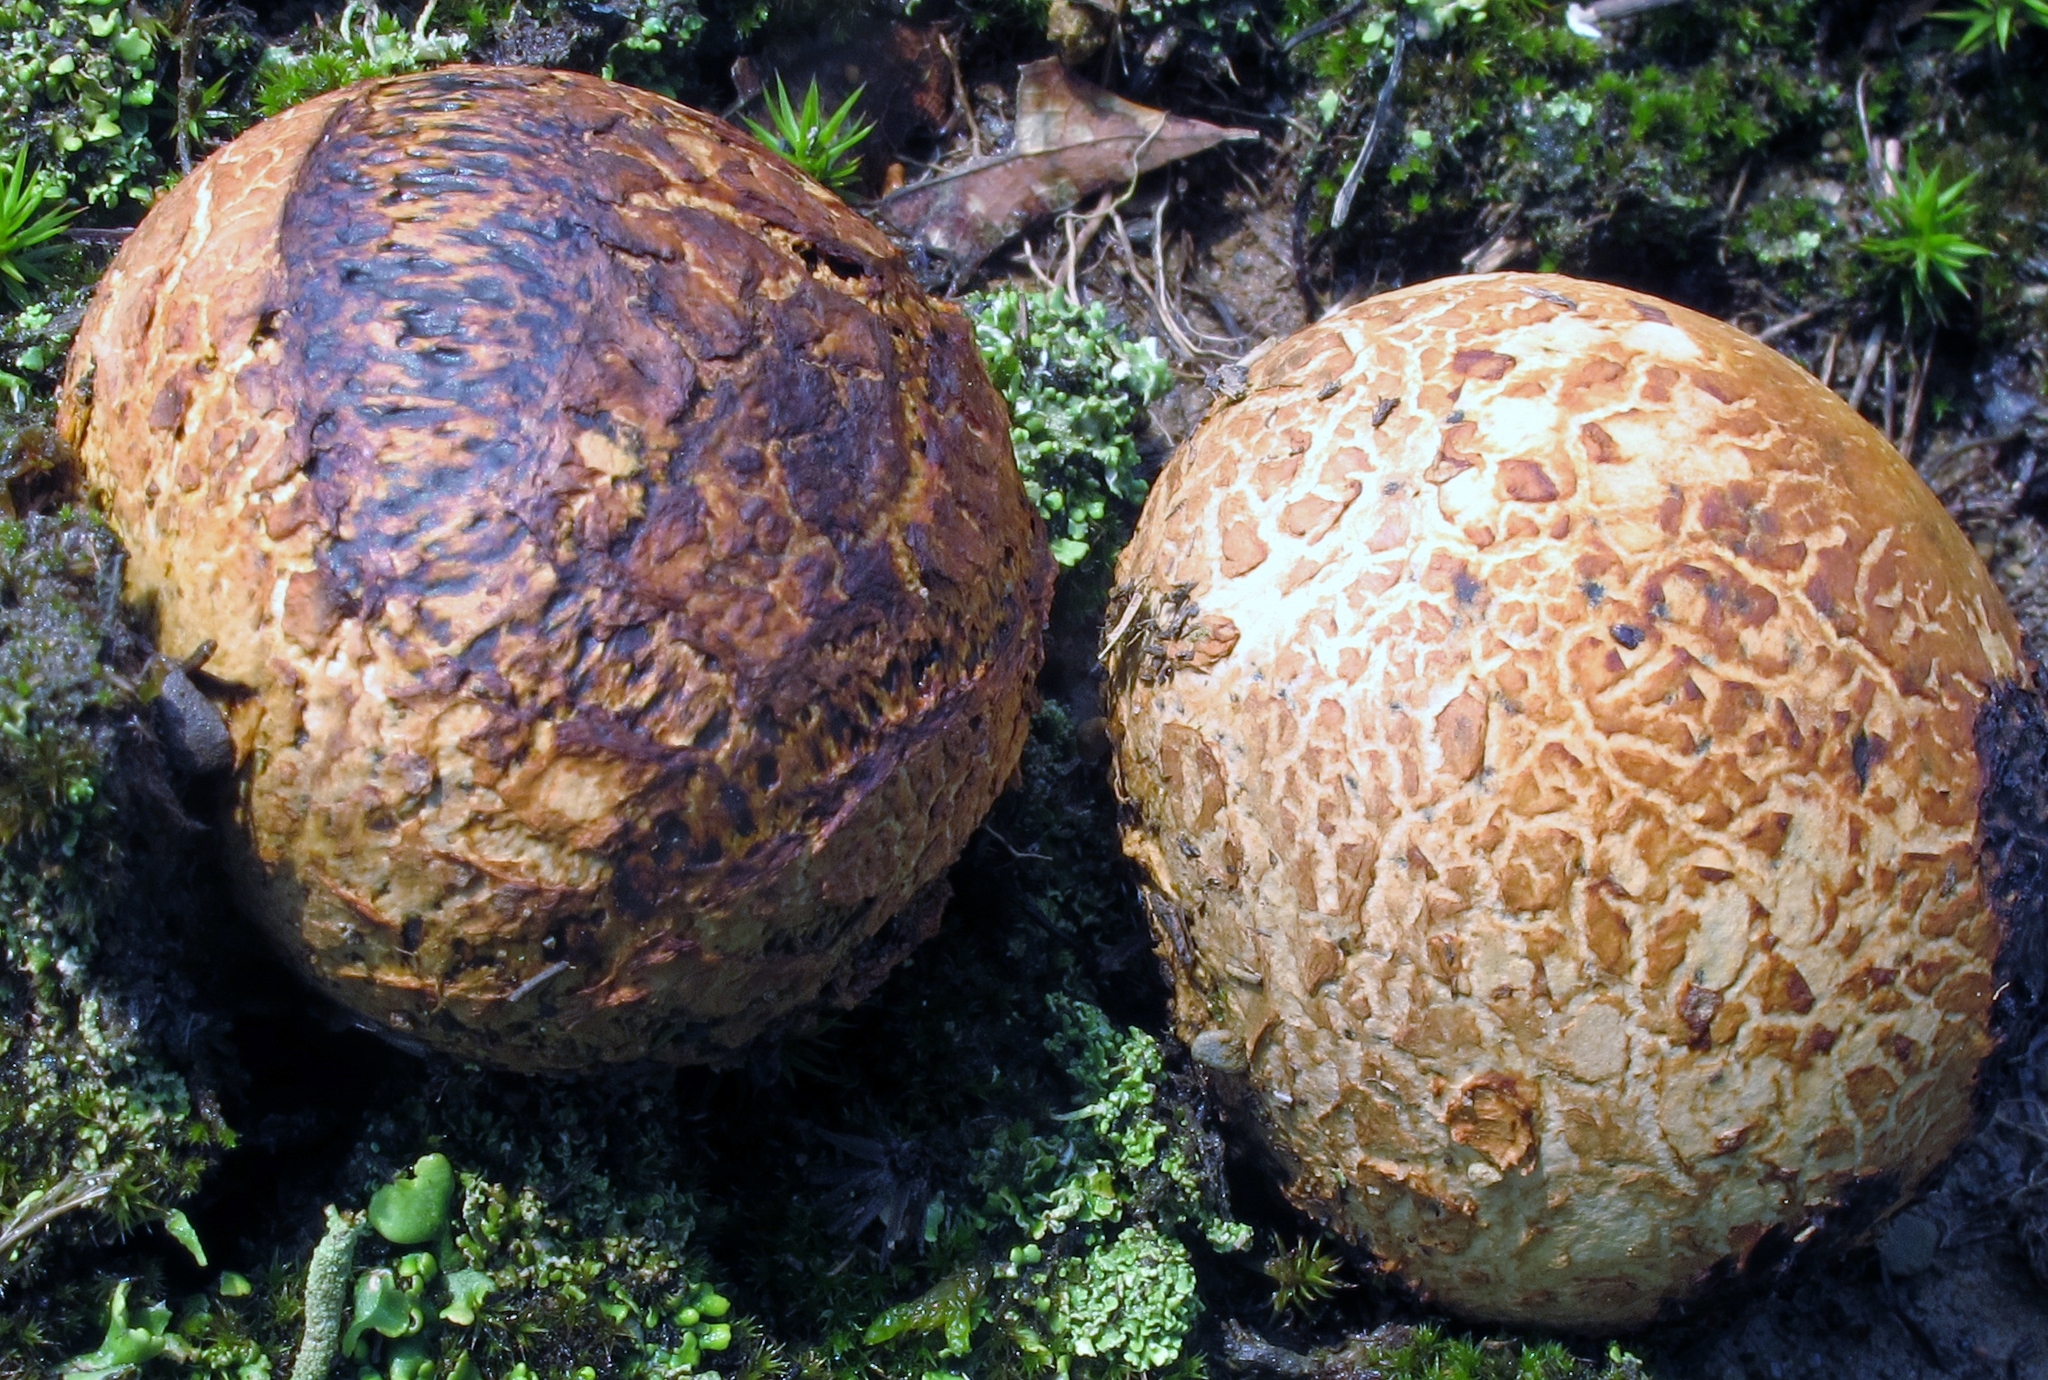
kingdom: Fungi
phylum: Basidiomycota
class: Agaricomycetes
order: Boletales
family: Sclerodermataceae
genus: Pisolithus
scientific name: Pisolithus arhizus
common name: Dyeball
